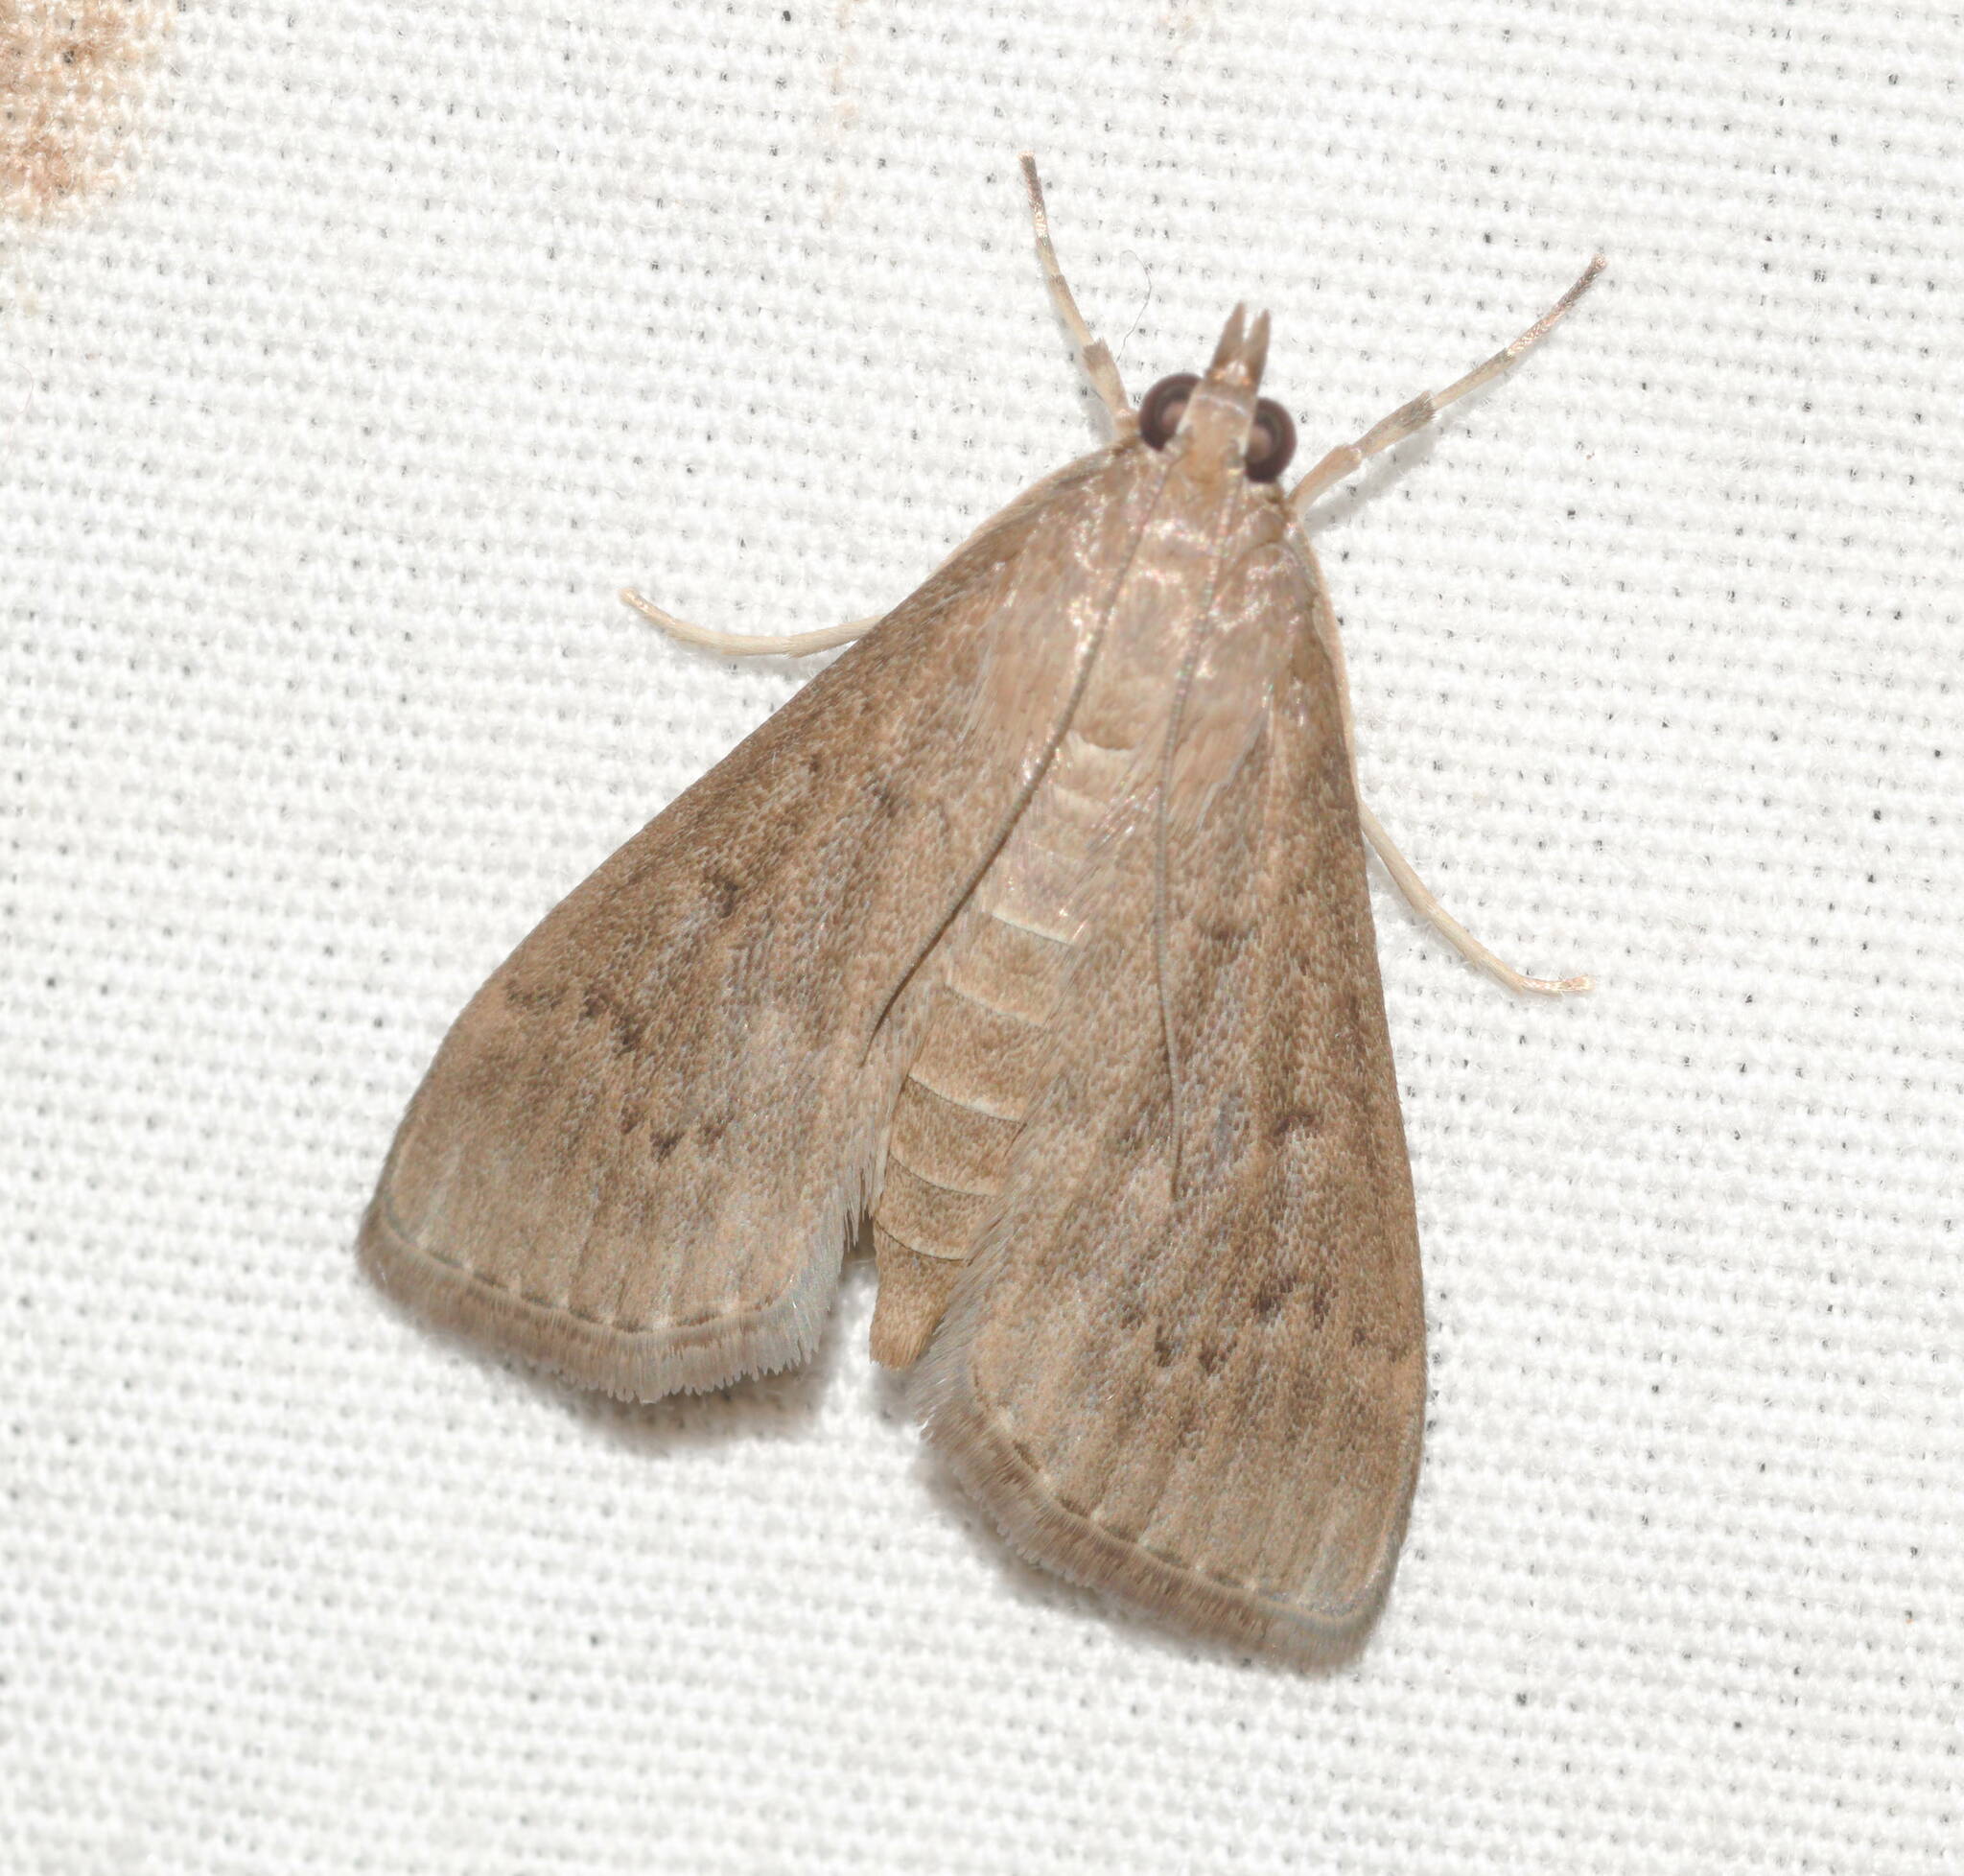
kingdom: Animalia
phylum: Arthropoda
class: Insecta
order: Lepidoptera
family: Crambidae
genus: Herpetogramma
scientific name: Herpetogramma licarsisalis
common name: Grass webworm
